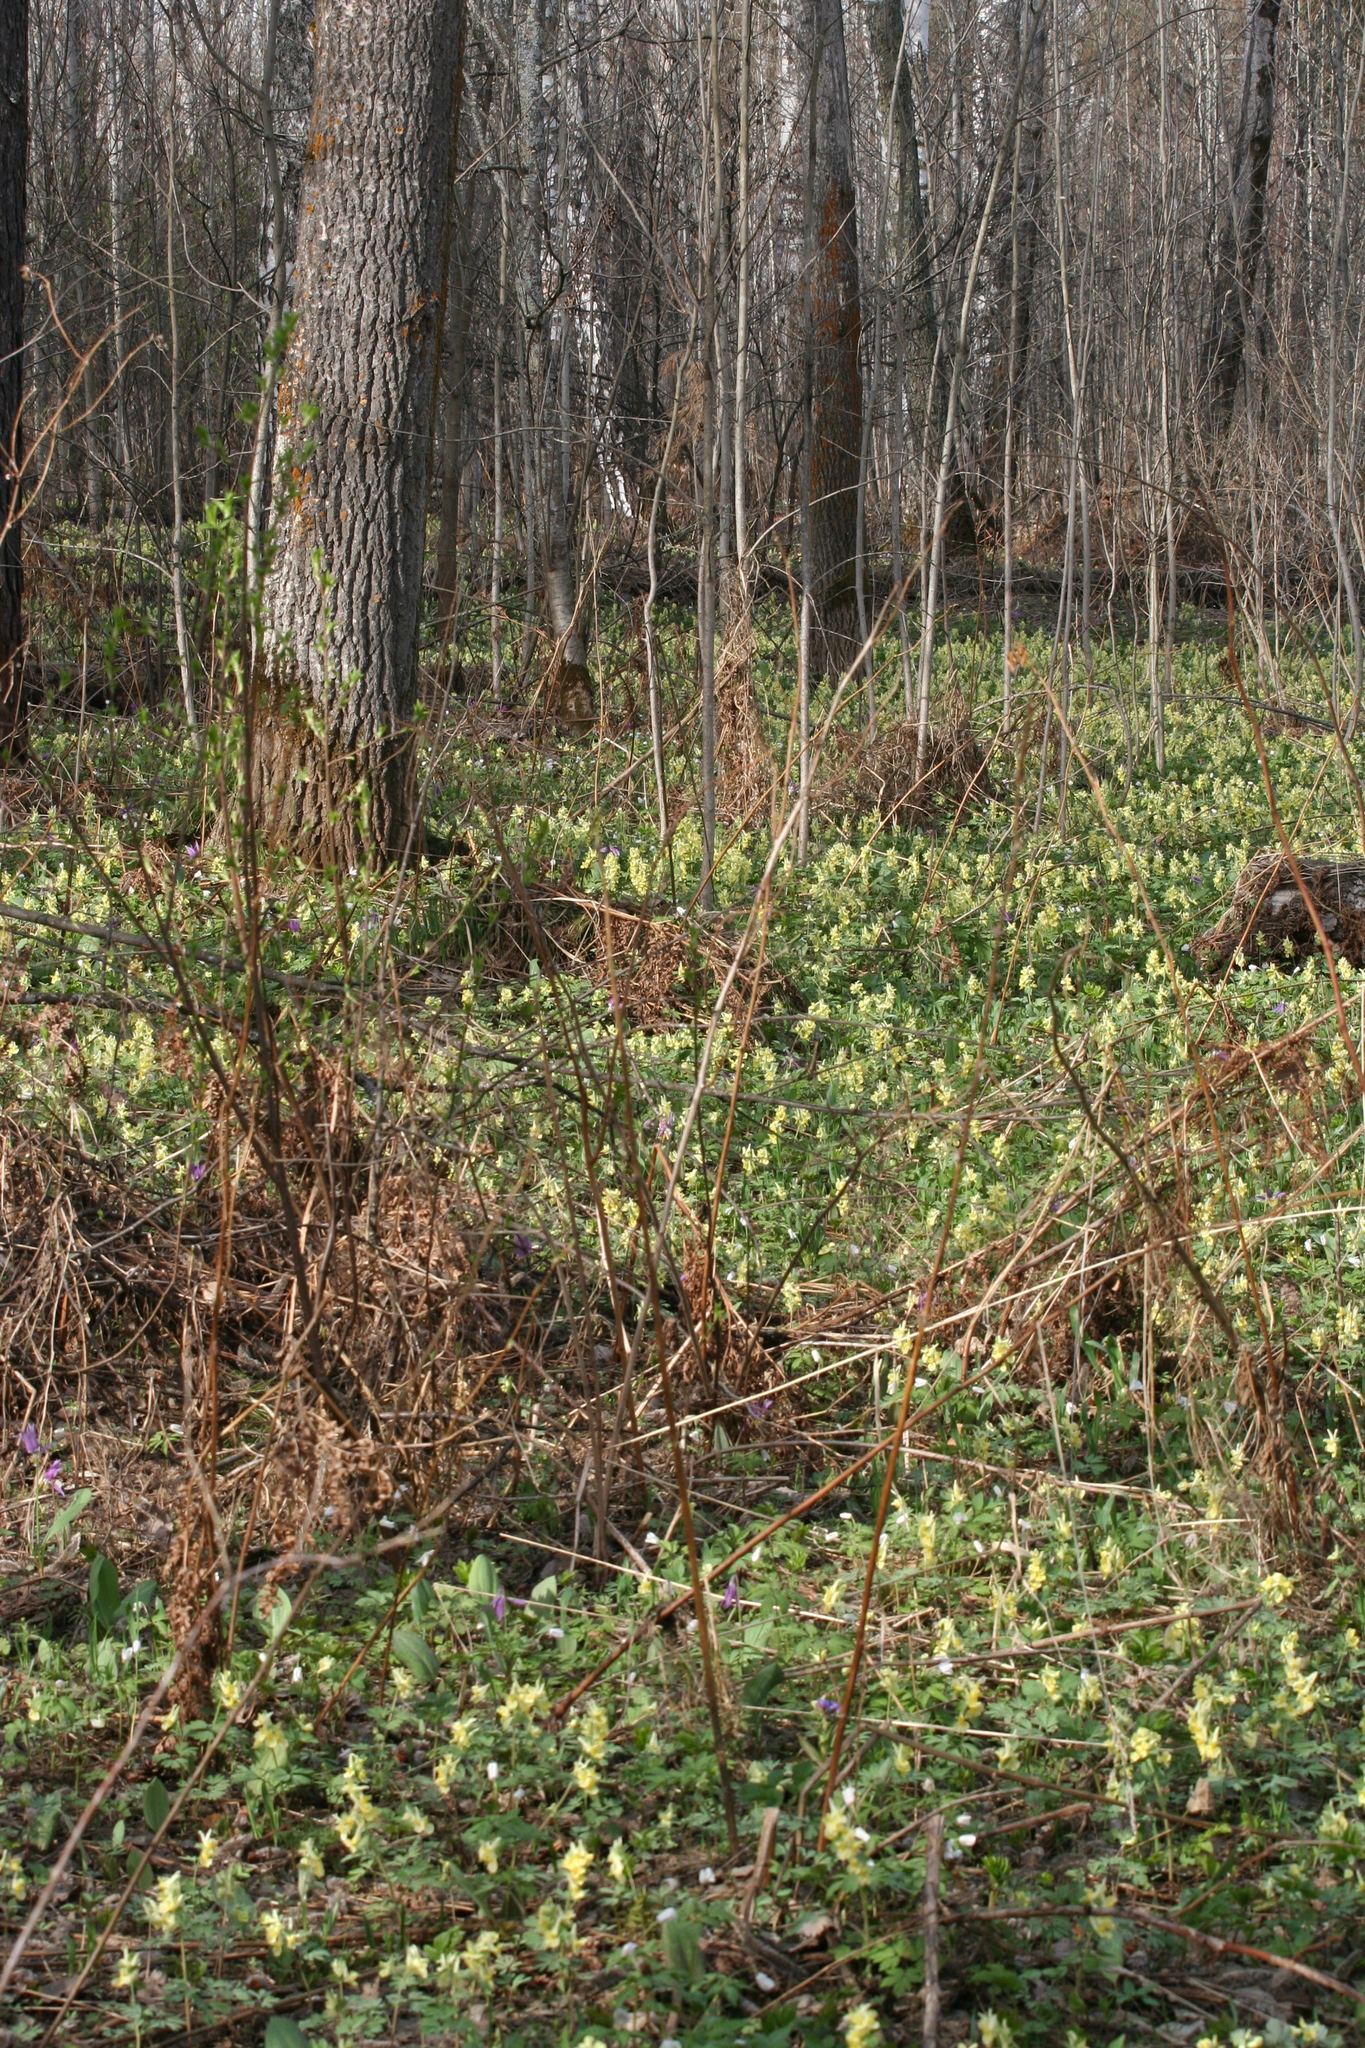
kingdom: Plantae
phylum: Tracheophyta
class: Magnoliopsida
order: Ranunculales
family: Papaveraceae
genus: Corydalis
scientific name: Corydalis bracteata
